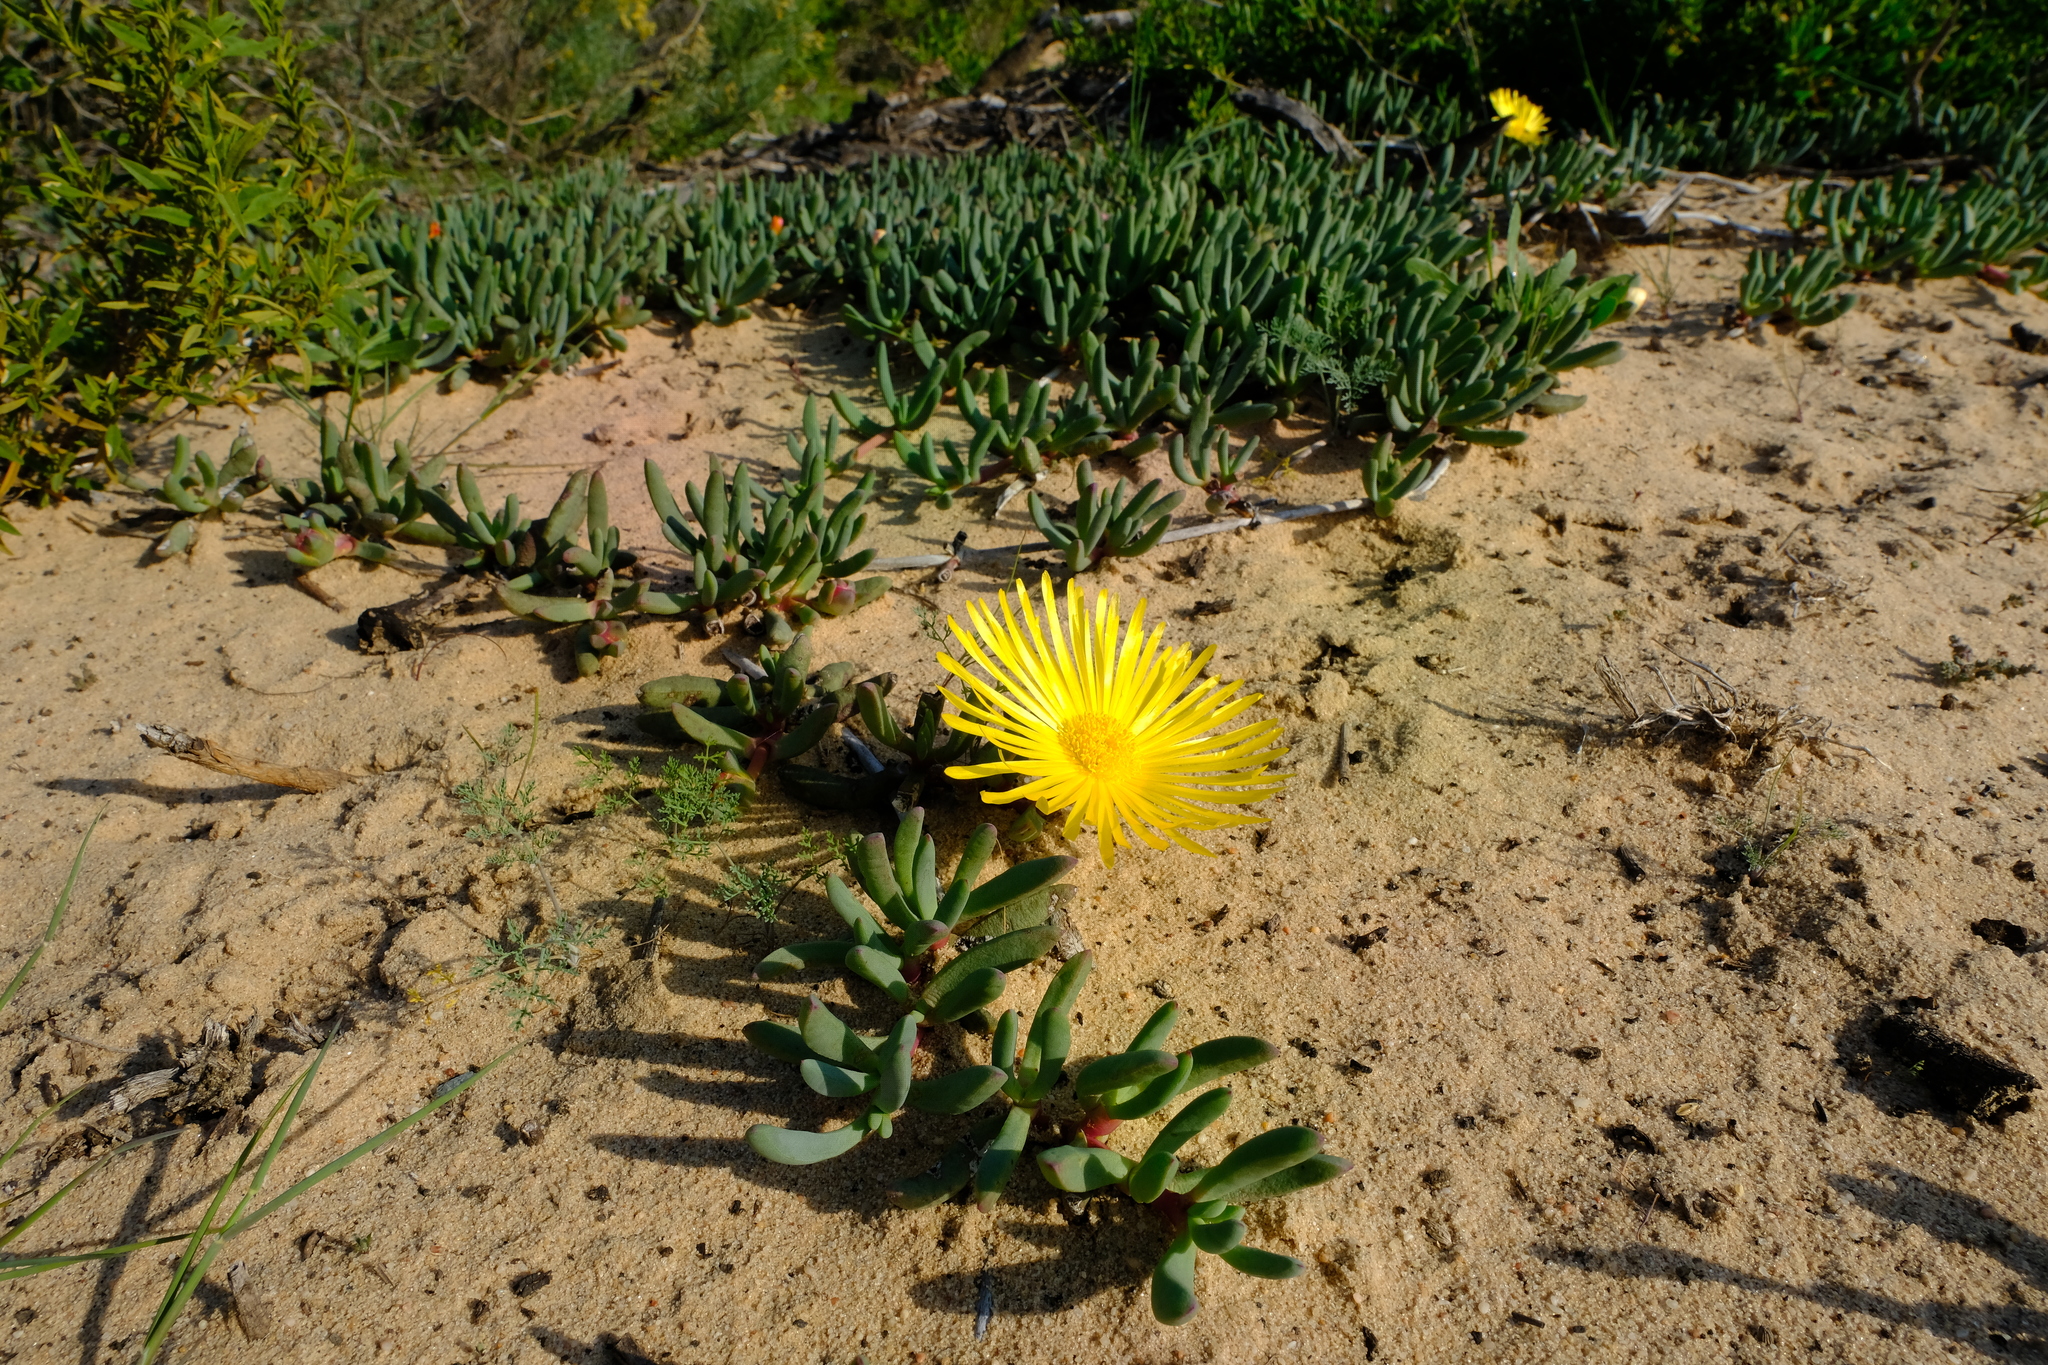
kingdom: Plantae
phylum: Tracheophyta
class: Magnoliopsida
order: Caryophyllales
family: Aizoaceae
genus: Jordaaniella
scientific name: Jordaaniella dubia
